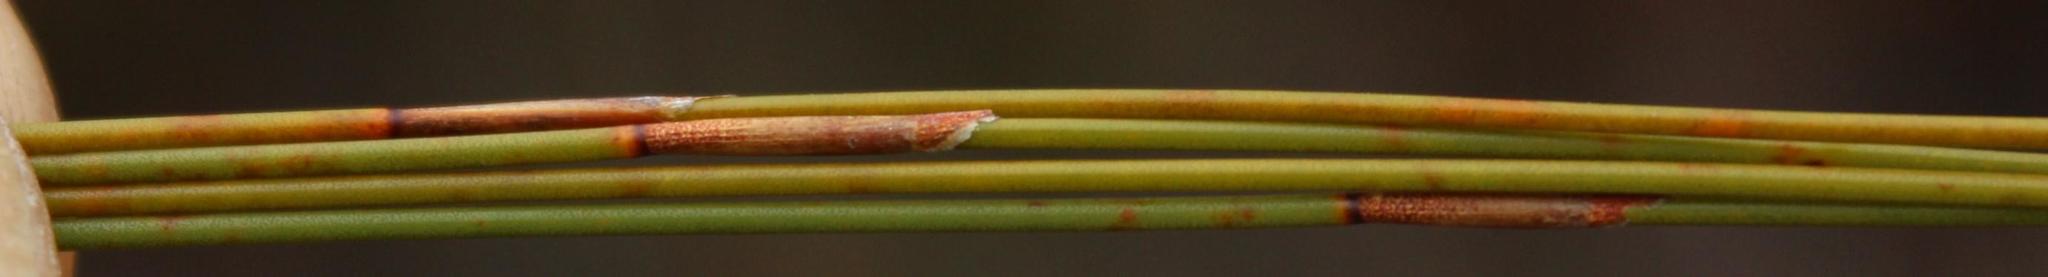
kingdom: Plantae
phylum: Tracheophyta
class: Liliopsida
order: Poales
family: Restionaceae
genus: Restio
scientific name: Restio bifidus
